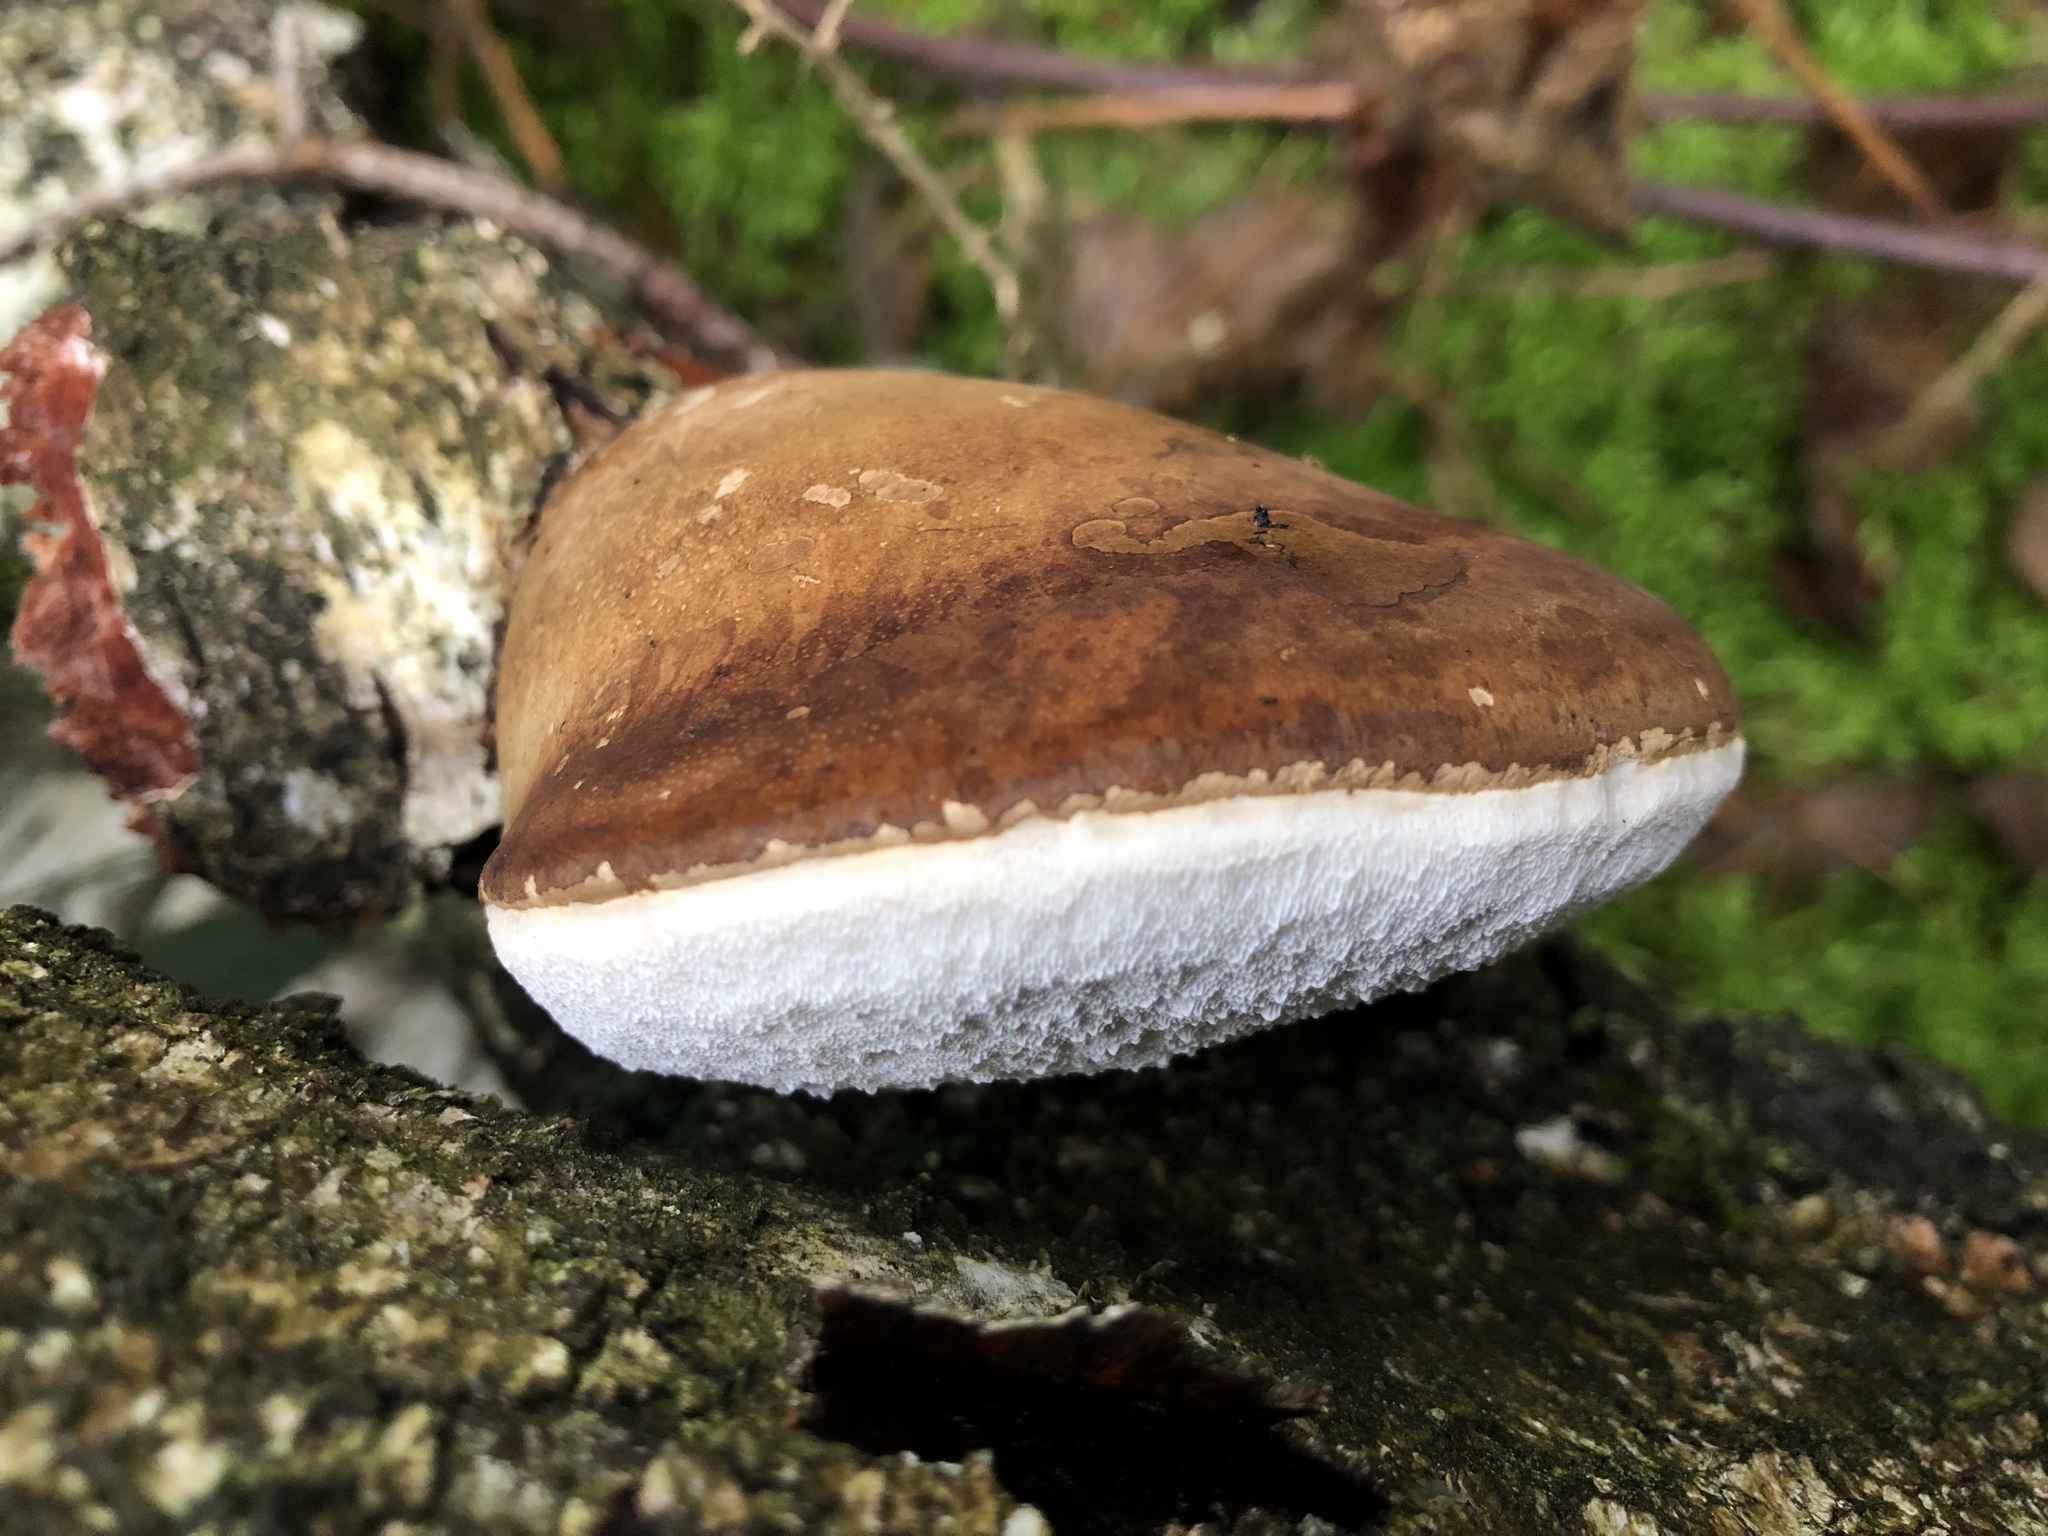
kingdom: Fungi
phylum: Basidiomycota
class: Agaricomycetes
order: Polyporales
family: Fomitopsidaceae
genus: Fomitopsis
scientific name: Fomitopsis betulina
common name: Birch polypore
